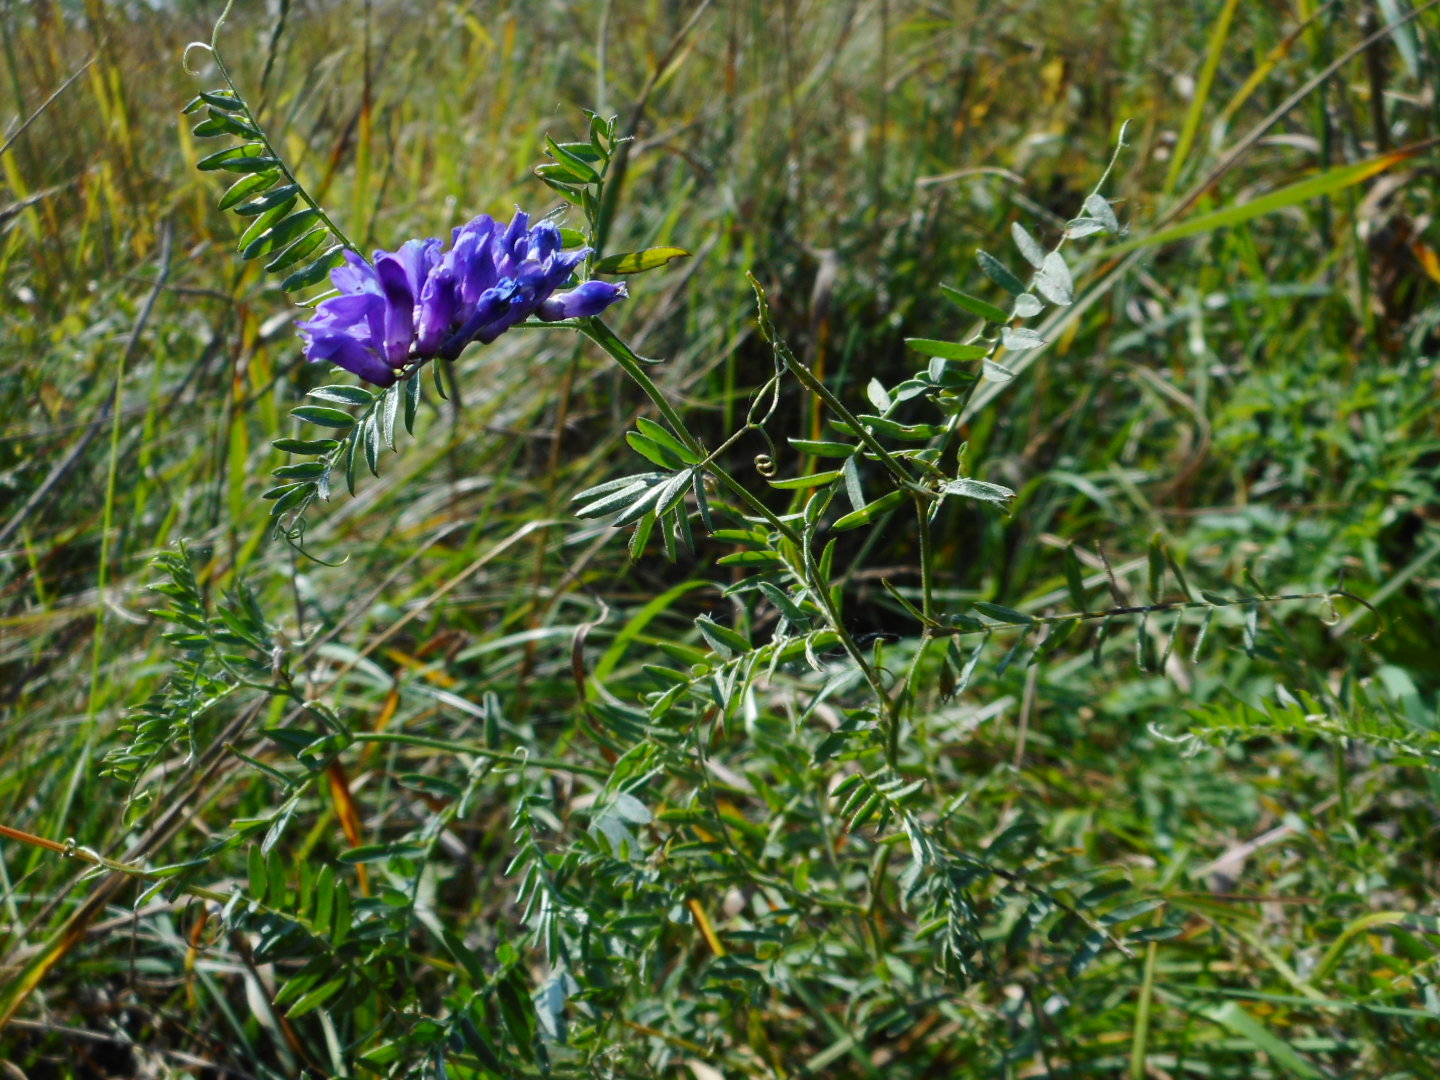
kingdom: Plantae
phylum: Tracheophyta
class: Magnoliopsida
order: Fabales
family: Fabaceae
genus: Vicia
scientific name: Vicia cracca
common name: Bird vetch
